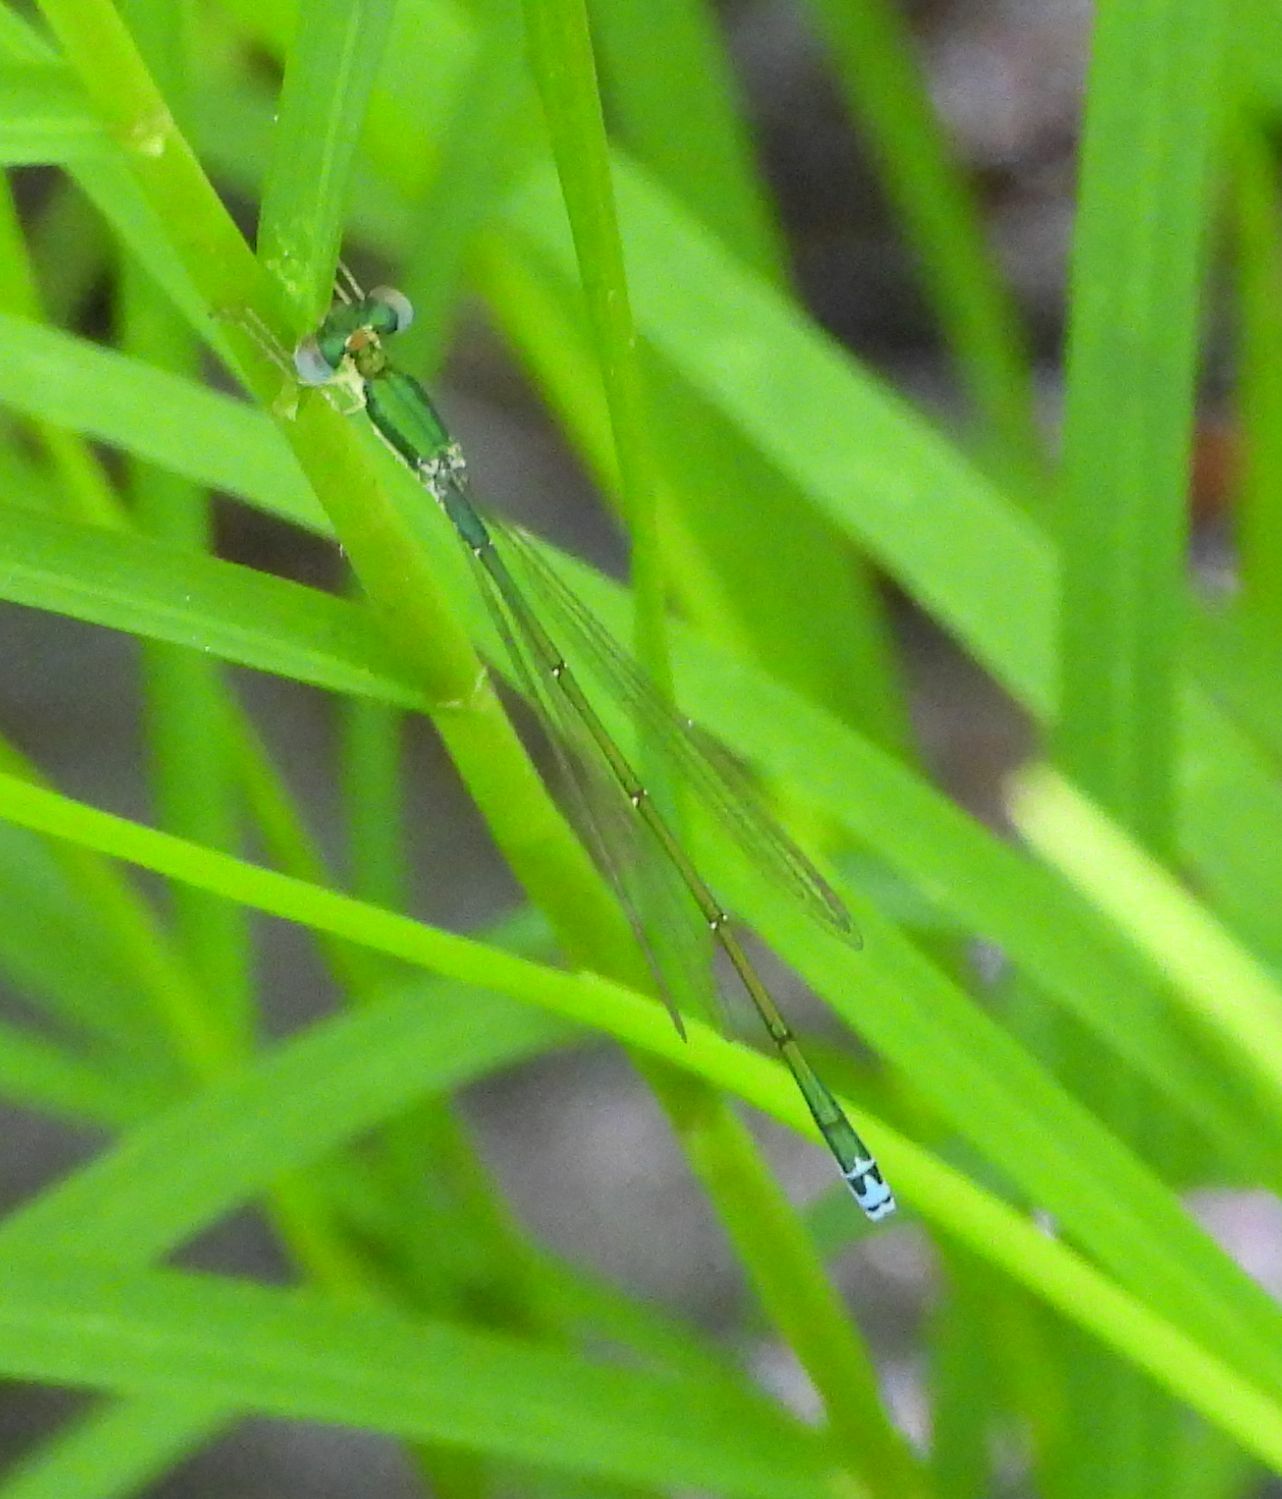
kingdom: Animalia
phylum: Arthropoda
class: Insecta
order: Odonata
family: Coenagrionidae
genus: Nehalennia
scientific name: Nehalennia irene
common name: Sedge sprite
